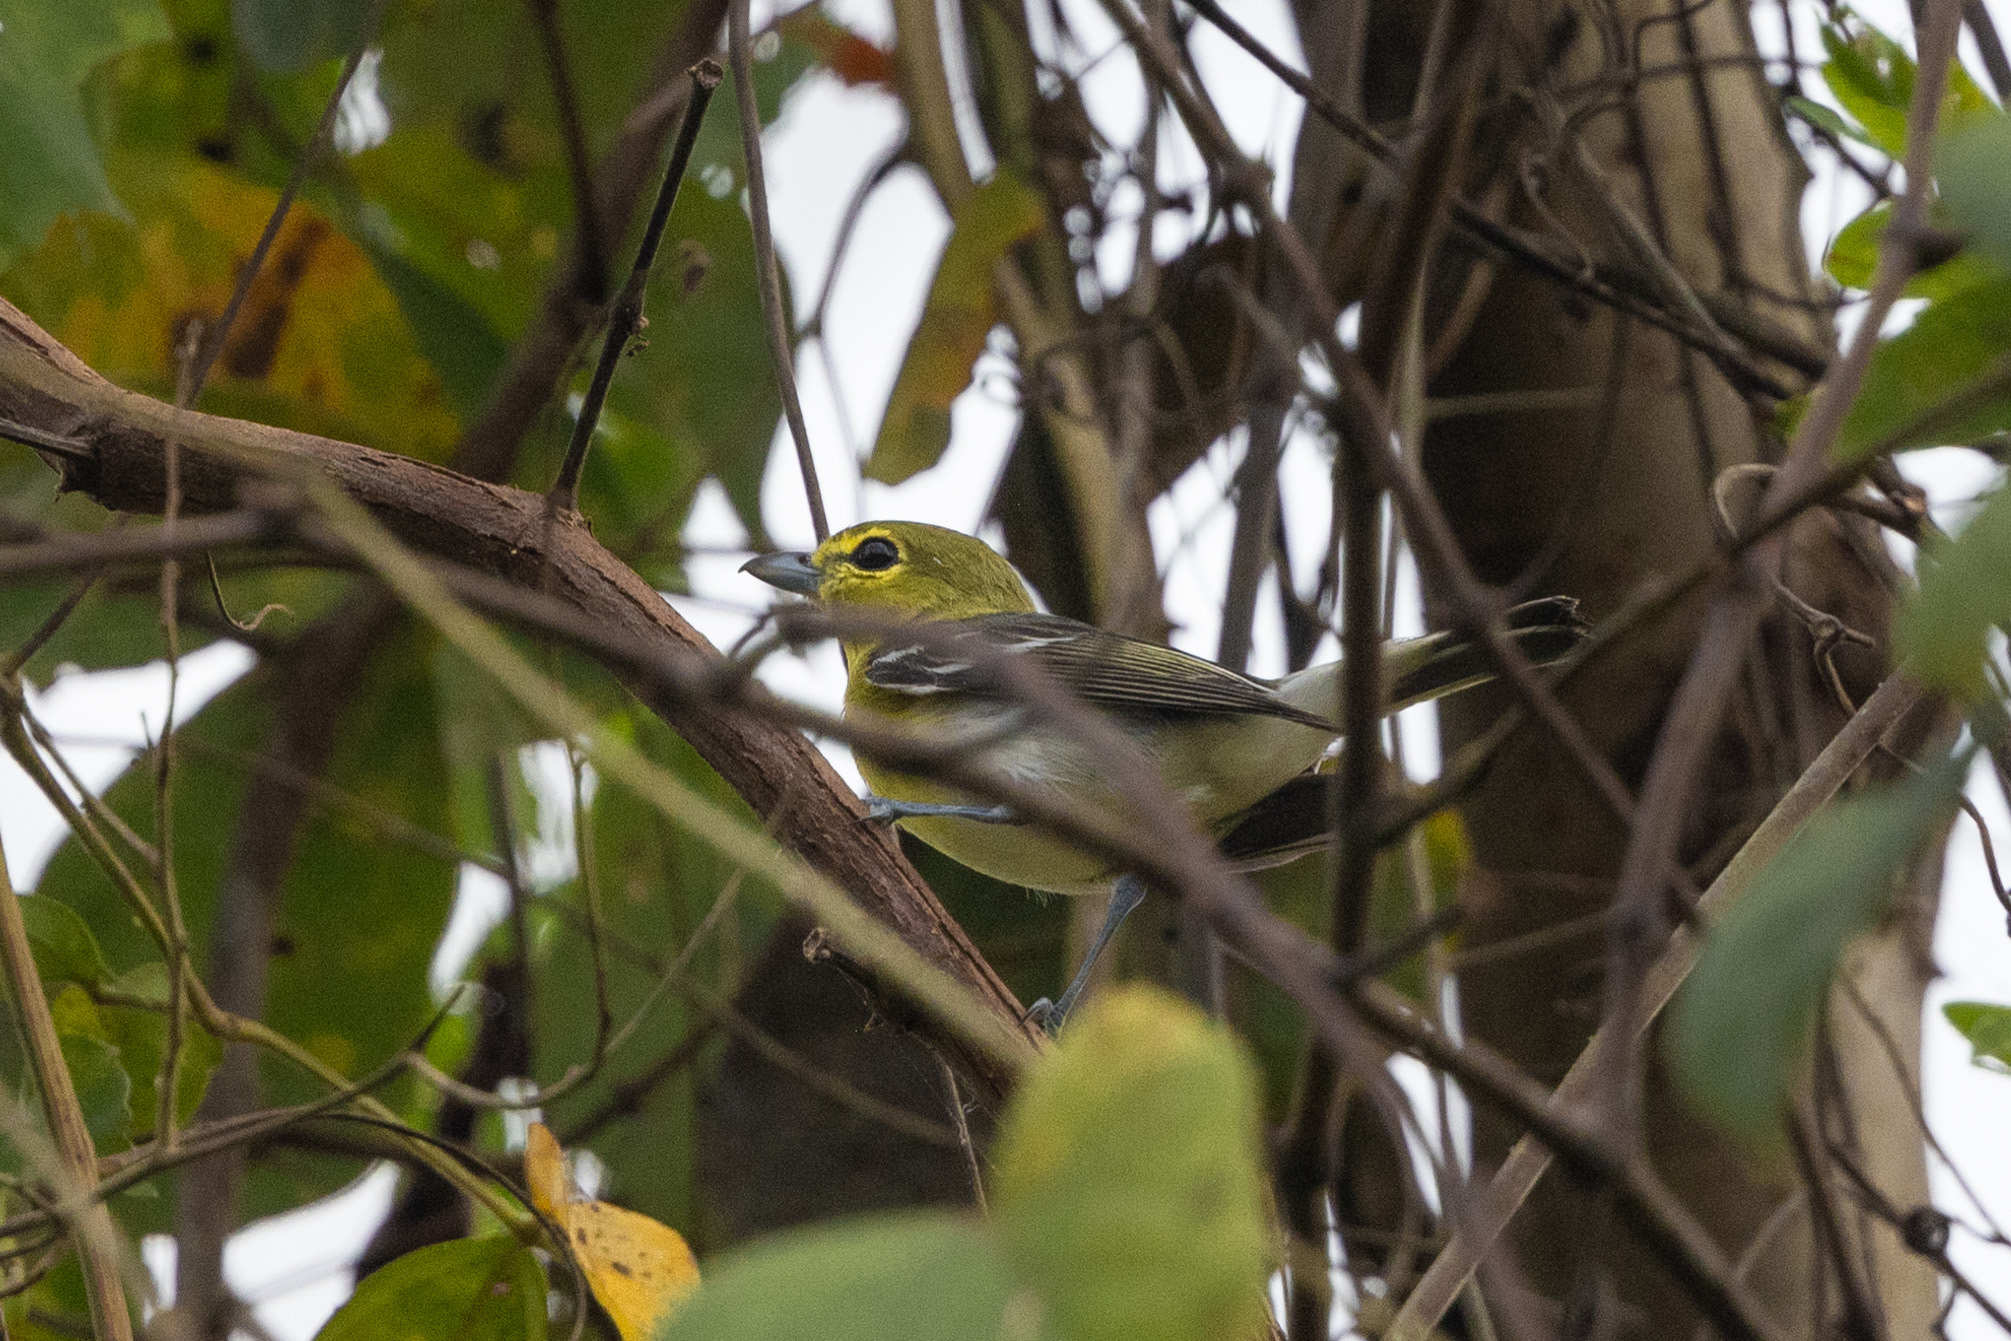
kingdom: Animalia
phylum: Chordata
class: Aves
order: Passeriformes
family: Vireonidae
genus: Vireo
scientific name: Vireo flavifrons
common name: Yellow-throated vireo
